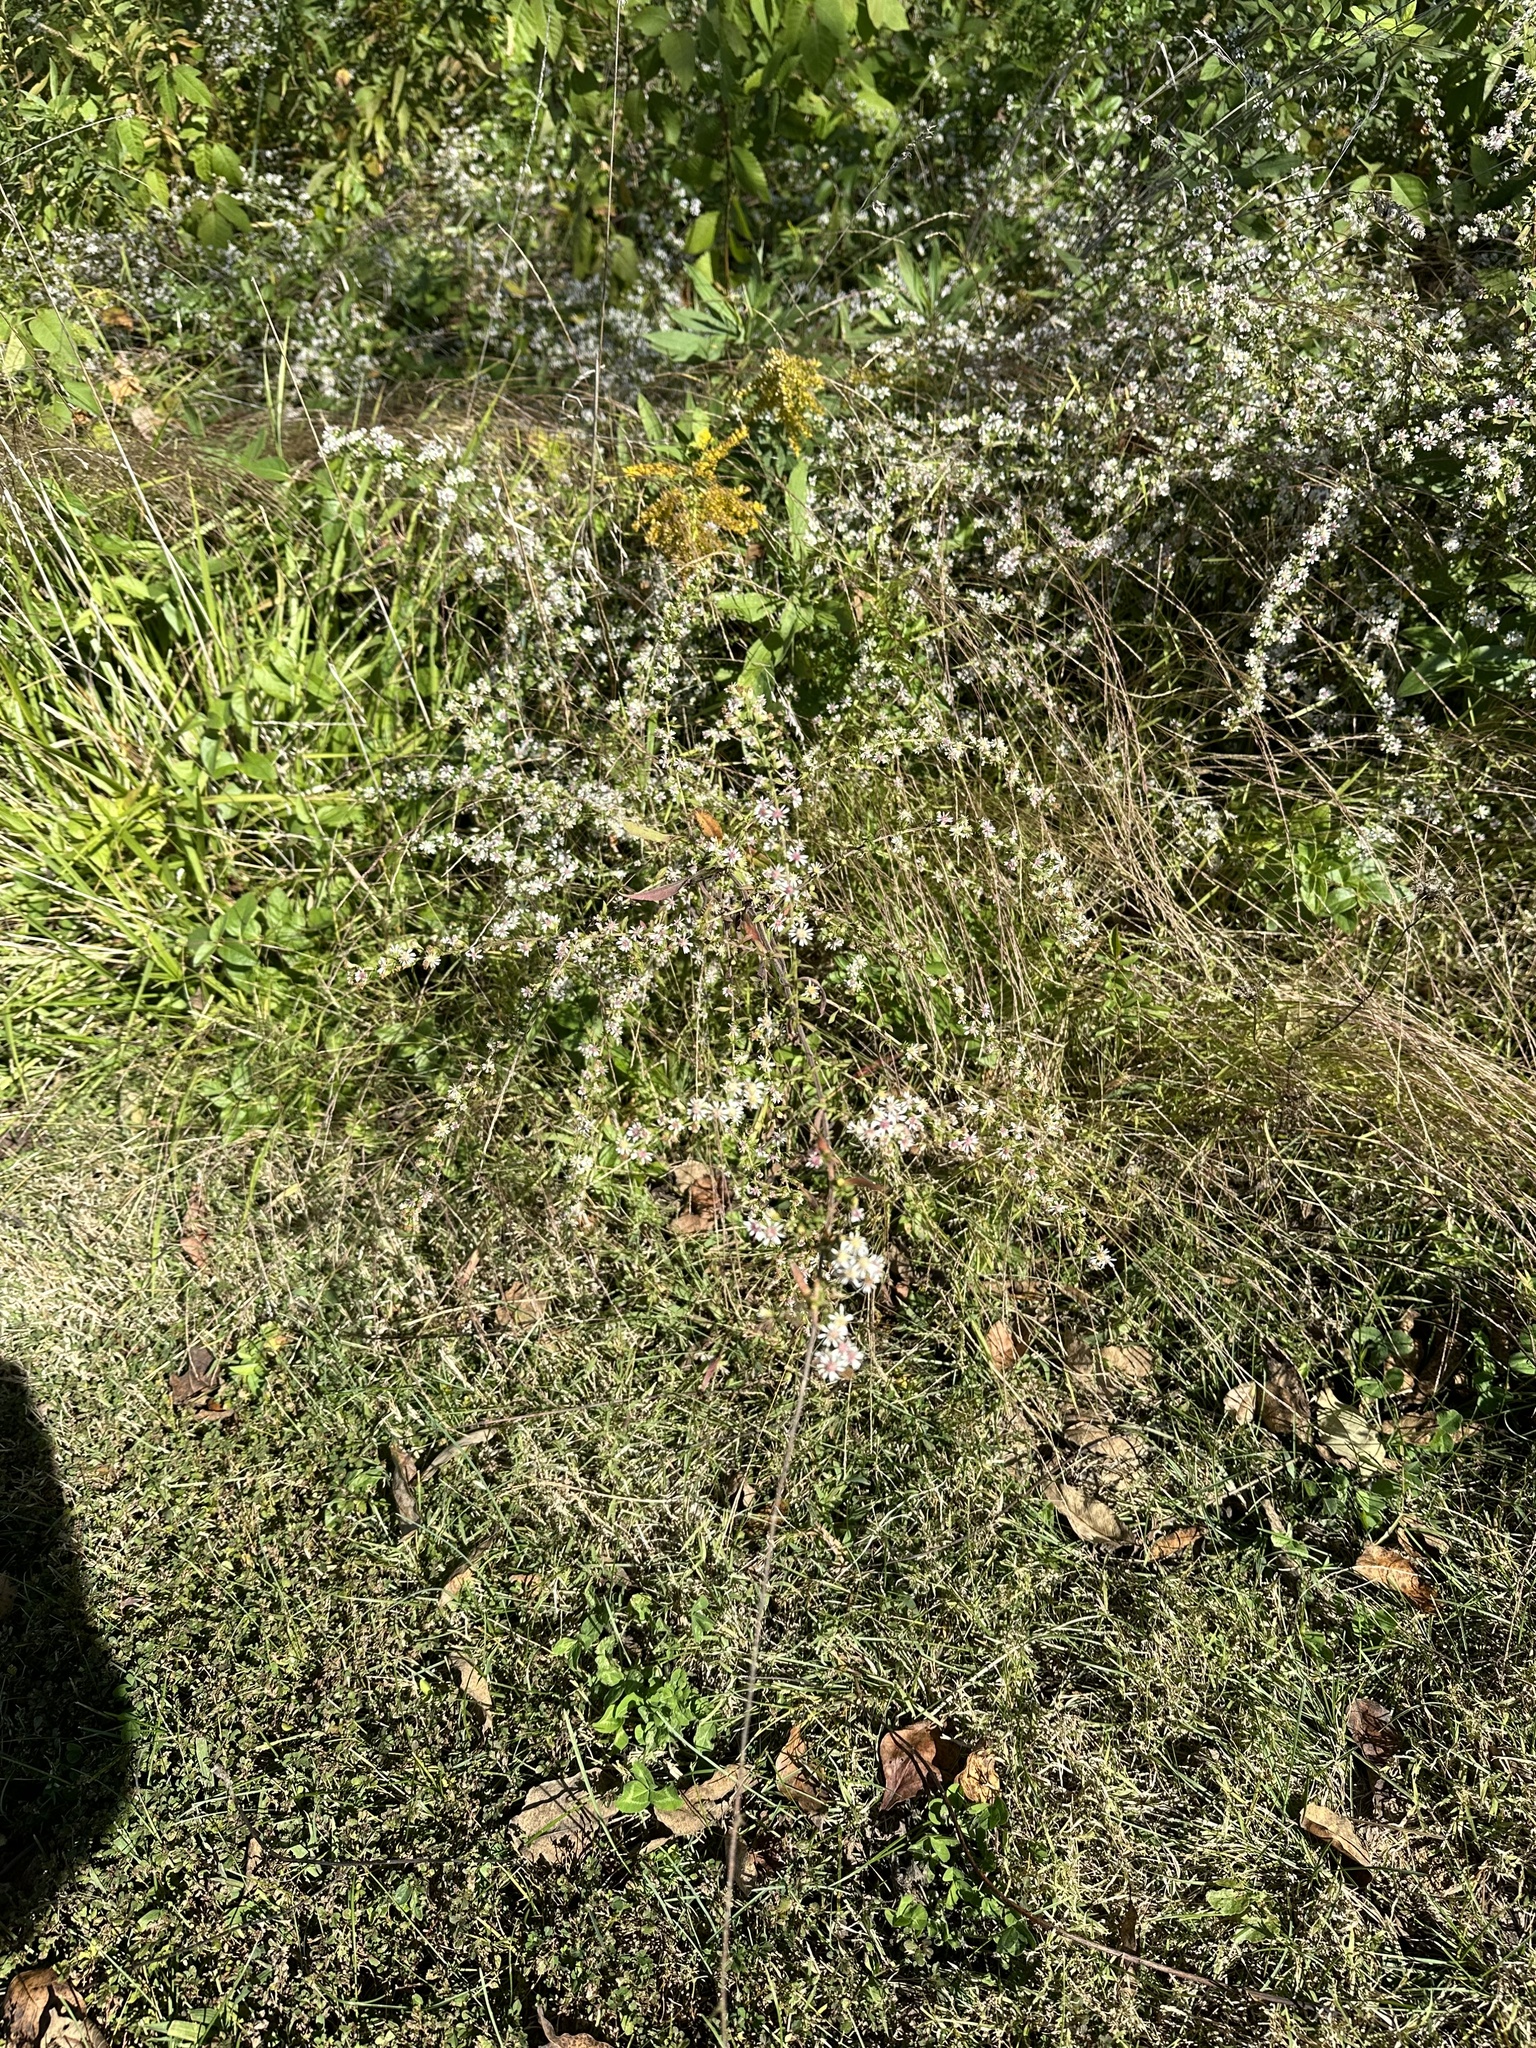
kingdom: Plantae
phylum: Tracheophyta
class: Magnoliopsida
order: Asterales
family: Asteraceae
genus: Symphyotrichum
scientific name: Symphyotrichum lateriflorum
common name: Calico aster
